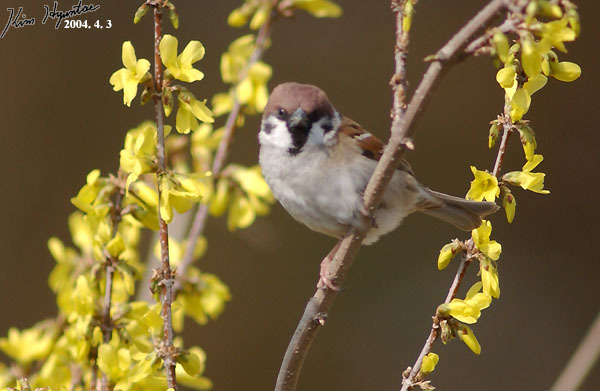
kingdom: Animalia
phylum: Chordata
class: Aves
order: Passeriformes
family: Passeridae
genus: Passer
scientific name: Passer montanus
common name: Eurasian tree sparrow
